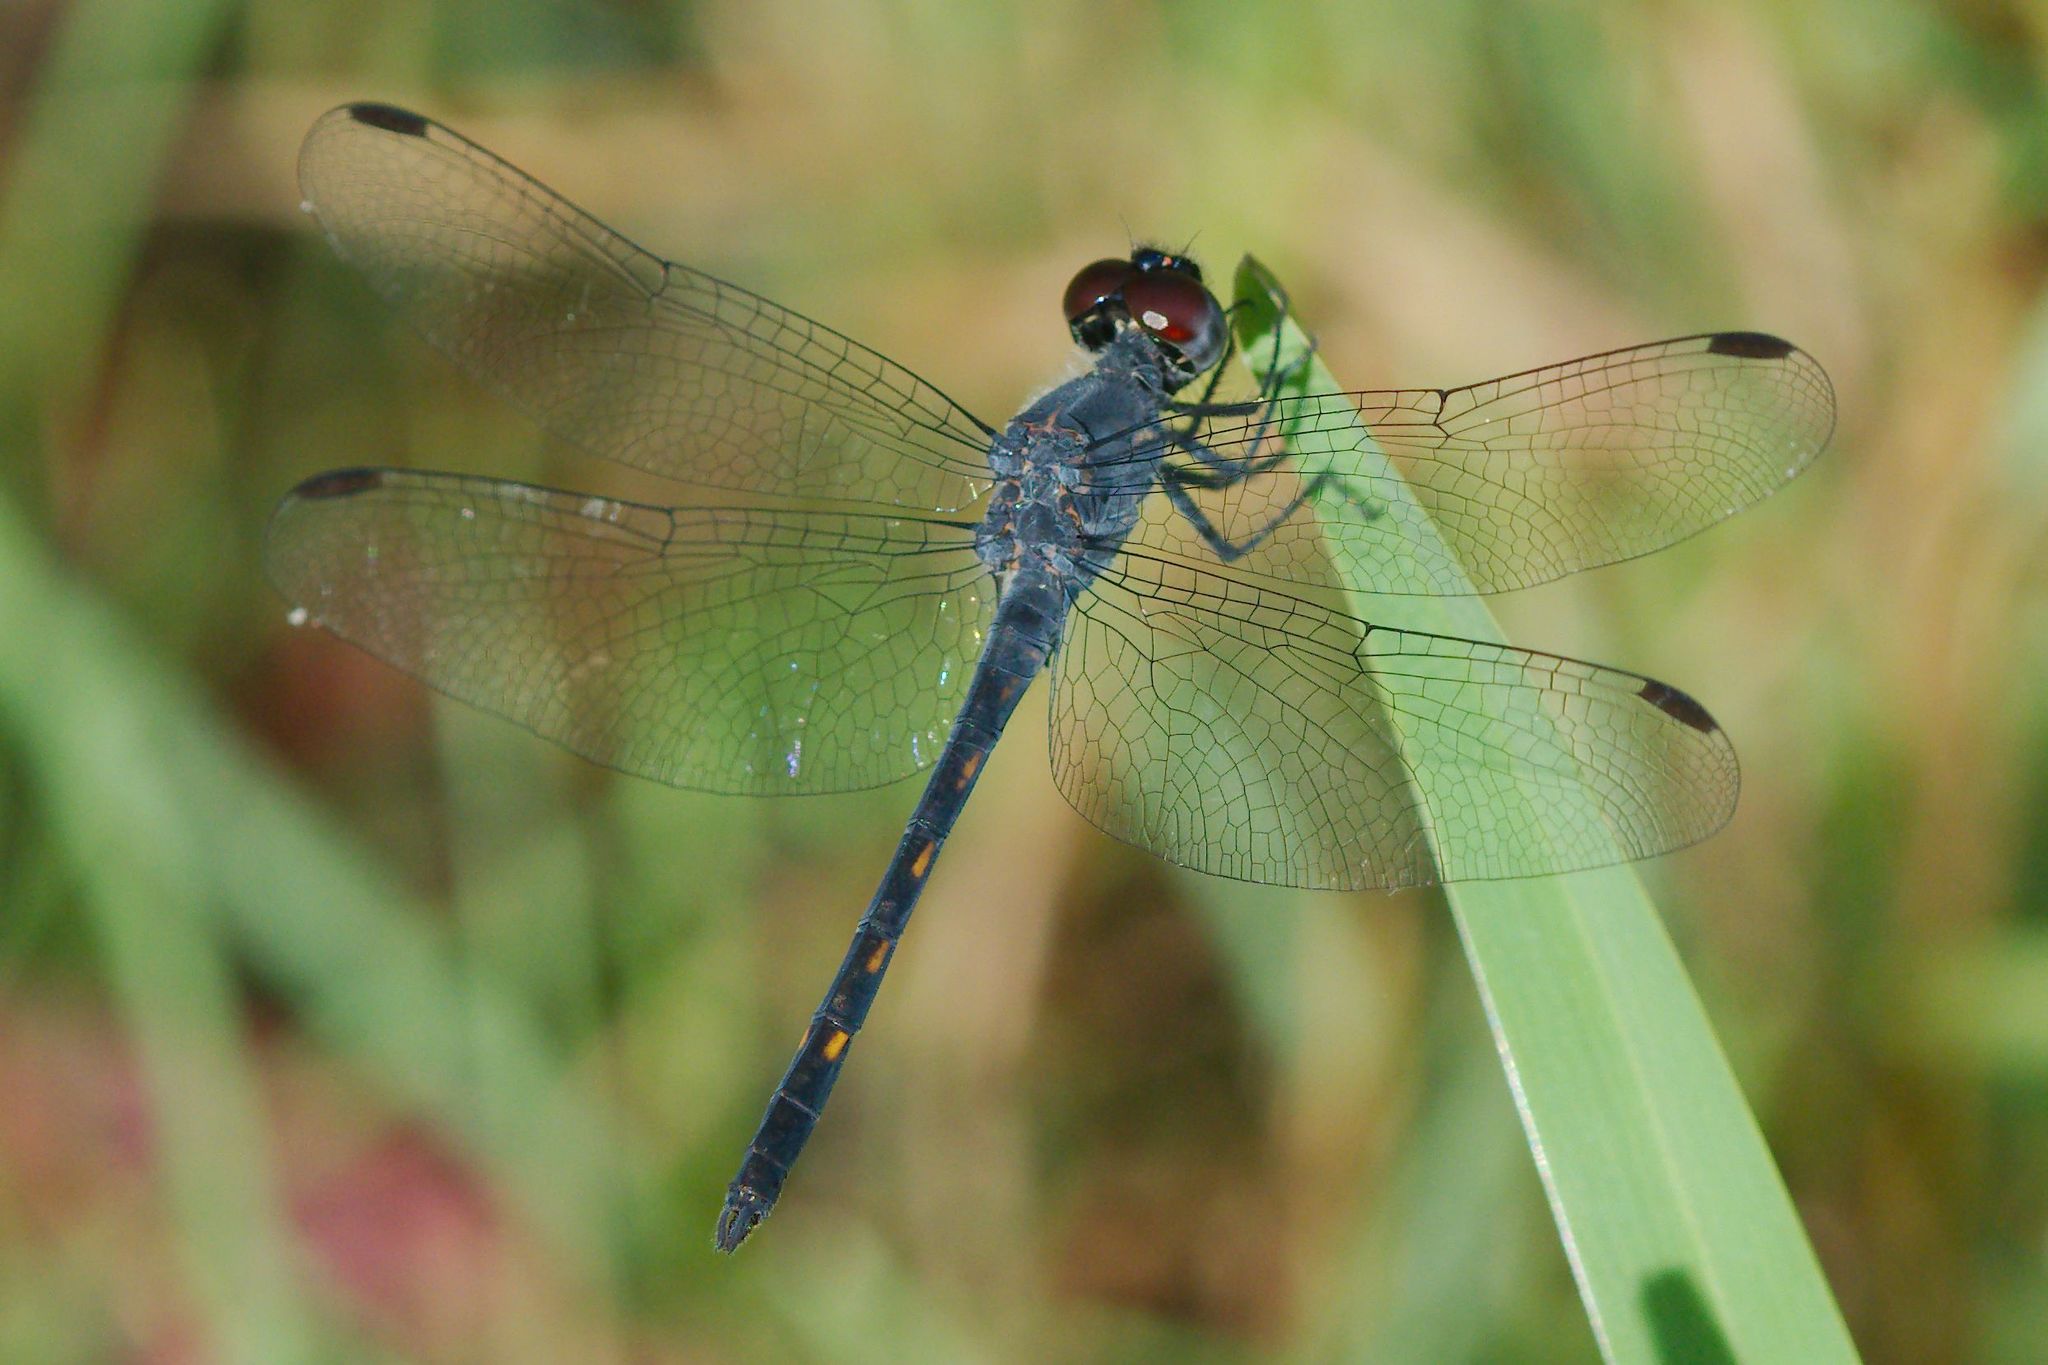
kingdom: Animalia
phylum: Arthropoda
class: Insecta
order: Odonata
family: Libellulidae
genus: Erythrodiplax
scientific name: Erythrodiplax berenice
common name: Seaside dragonlet
